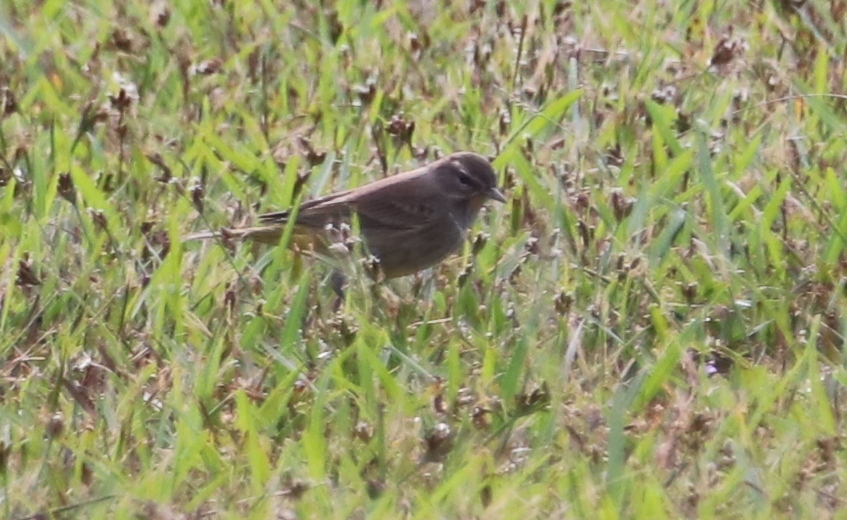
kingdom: Animalia
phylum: Chordata
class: Aves
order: Passeriformes
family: Parulidae
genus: Setophaga
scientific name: Setophaga palmarum
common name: Palm warbler
